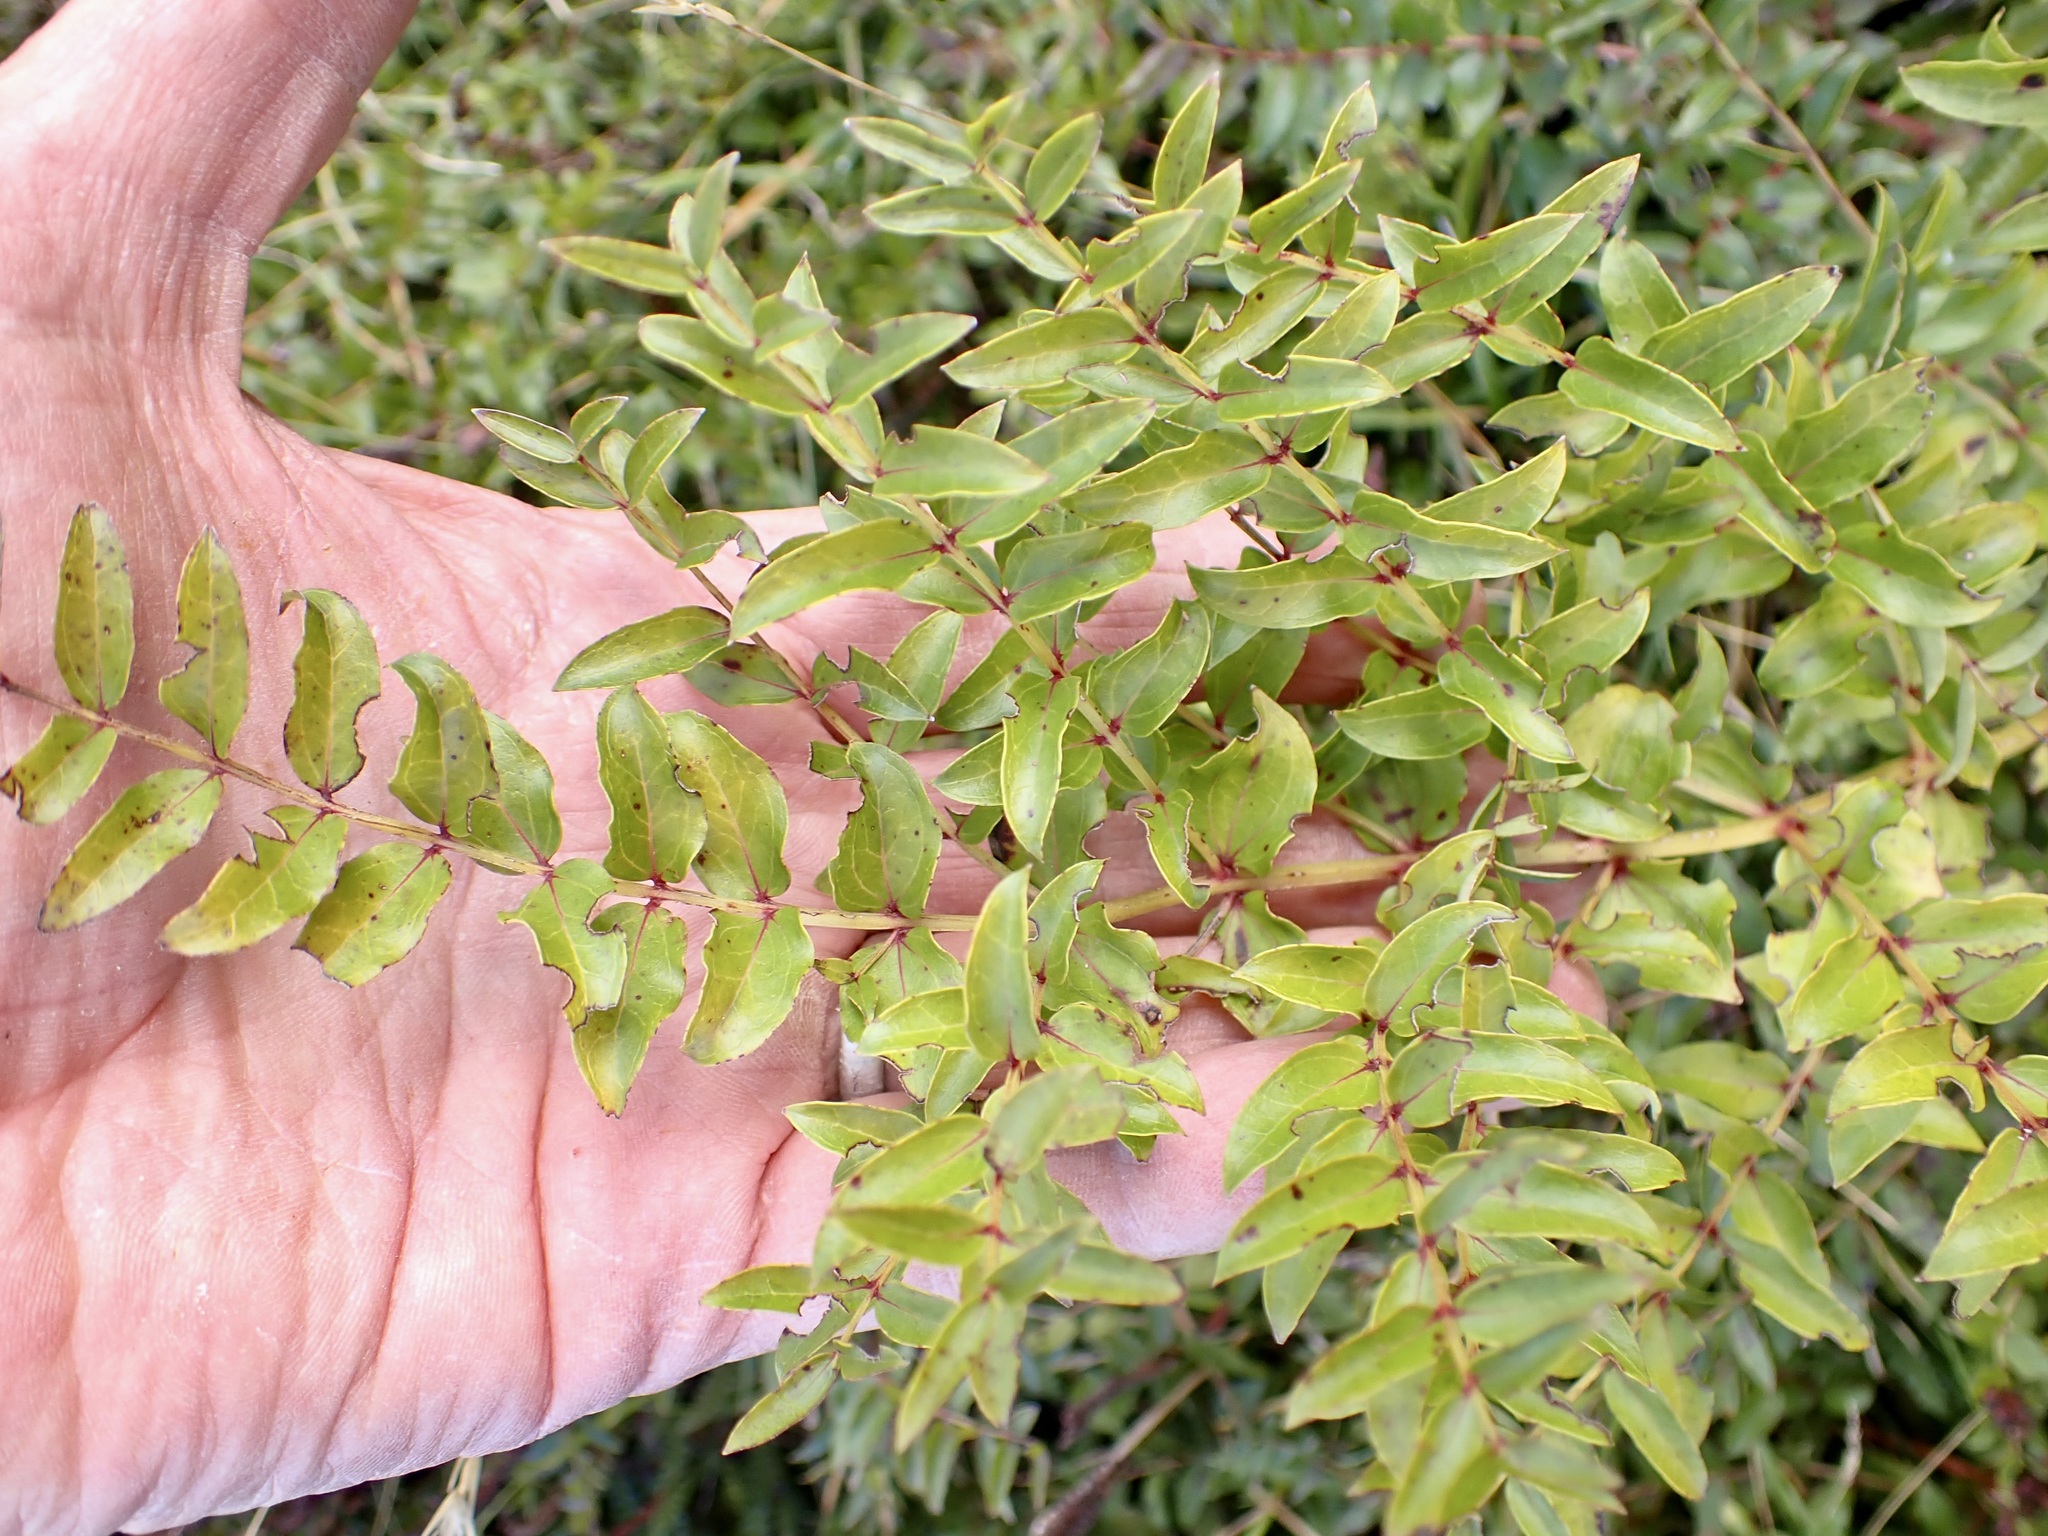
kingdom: Plantae
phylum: Tracheophyta
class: Magnoliopsida
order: Cucurbitales
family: Coriariaceae
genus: Coriaria
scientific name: Coriaria sarmentosa
